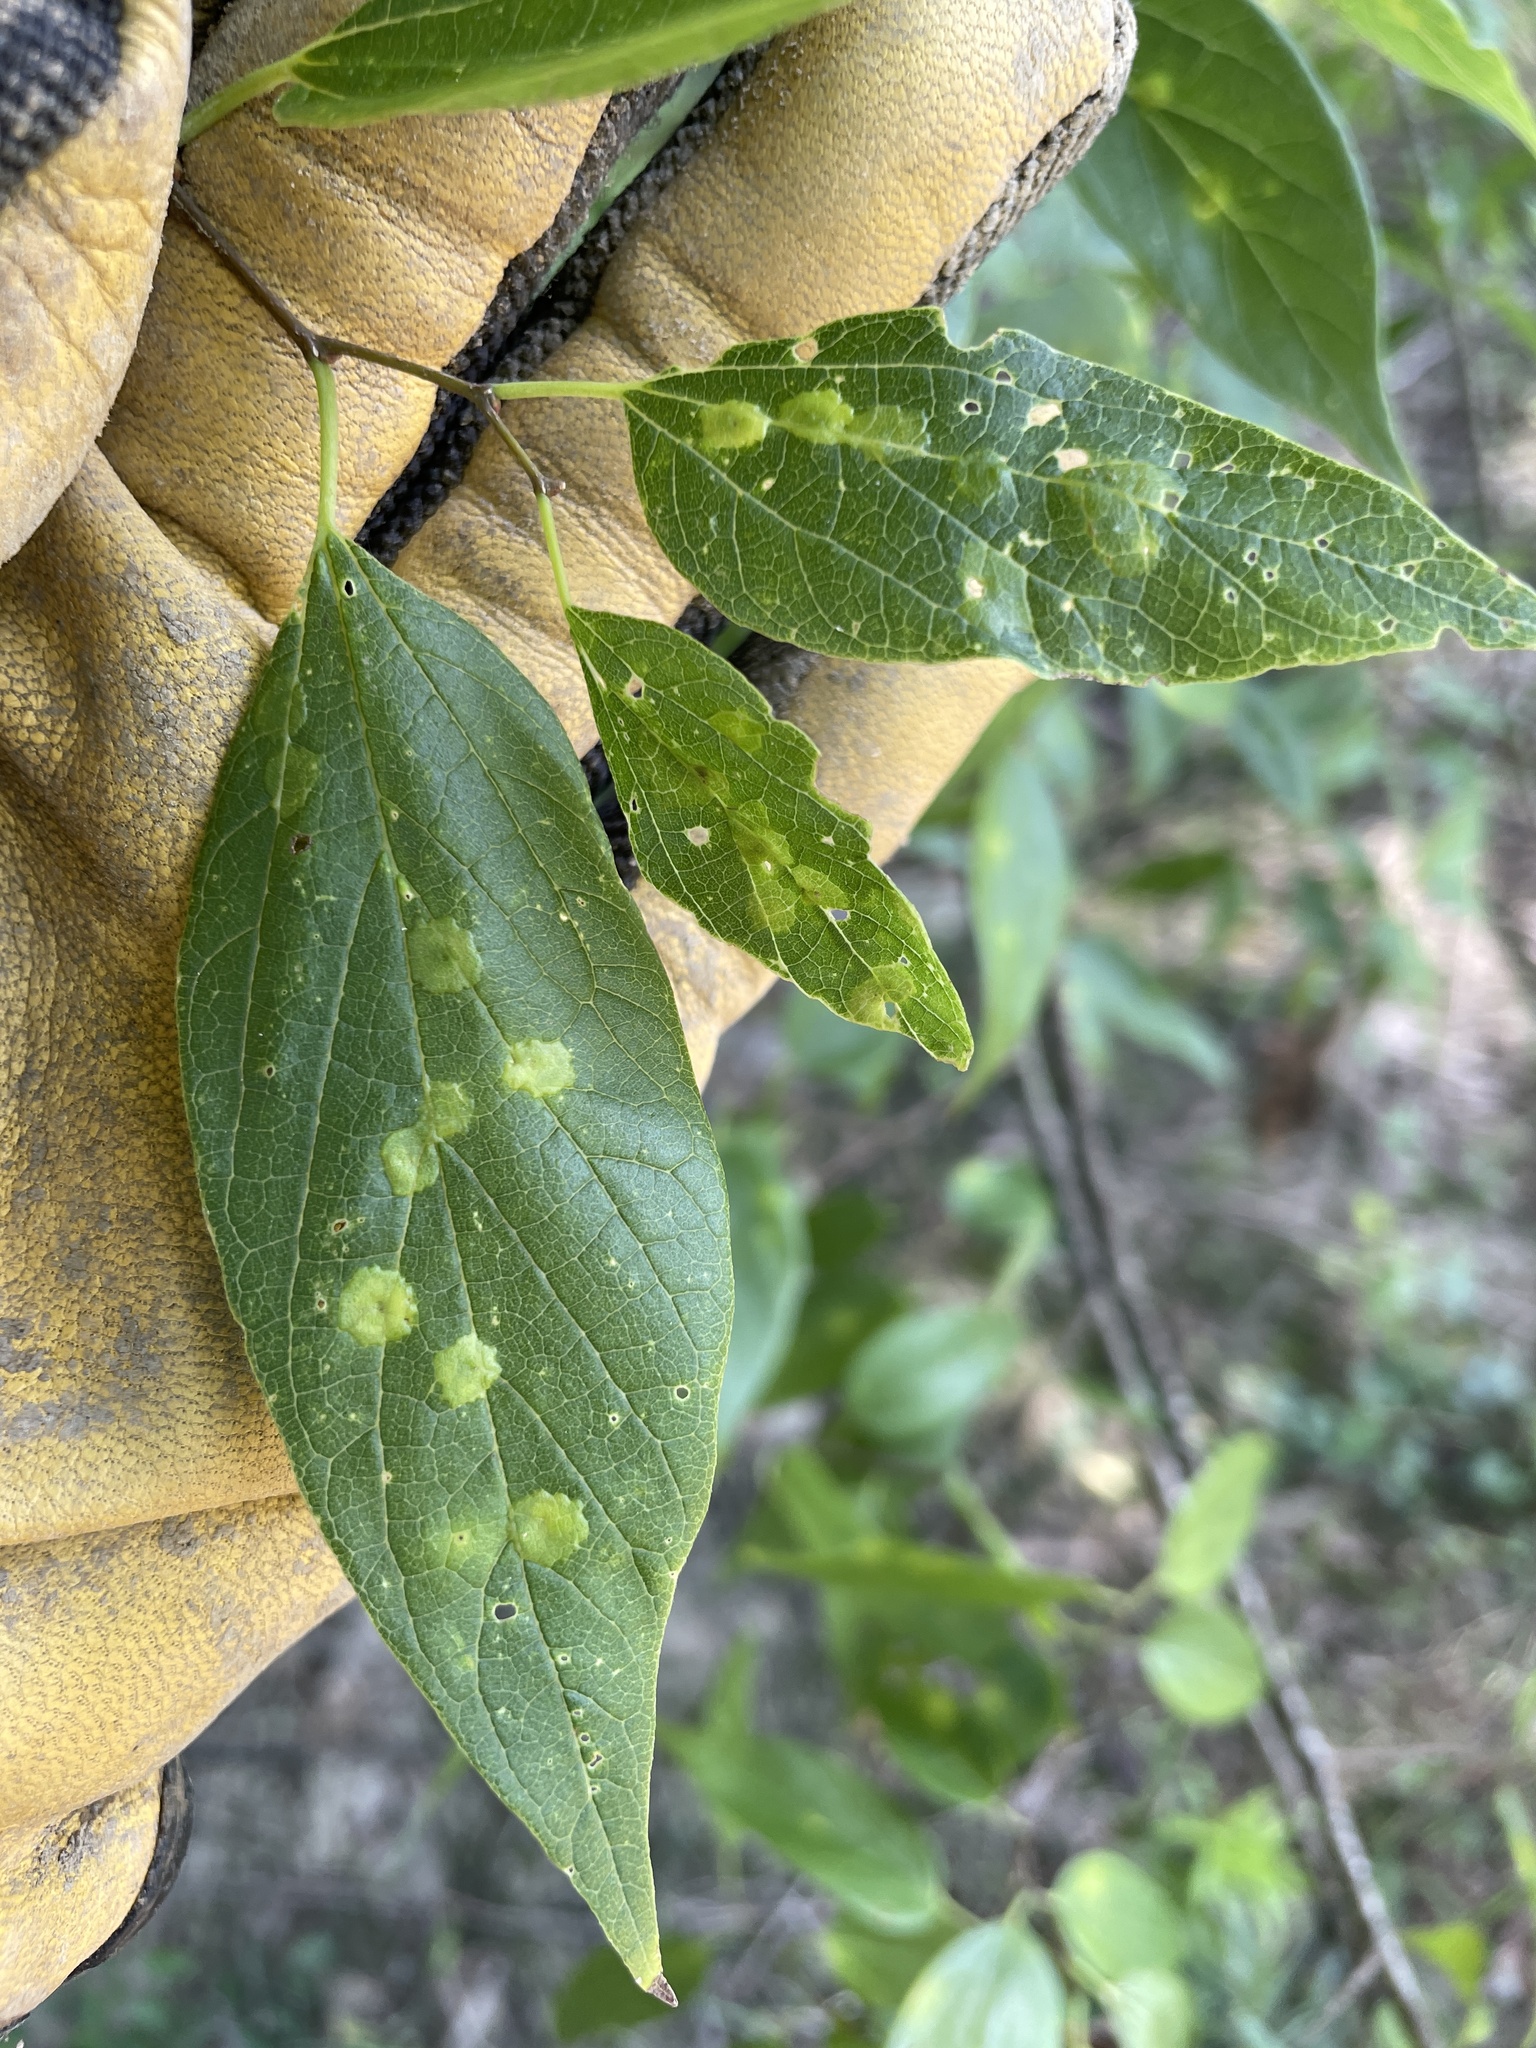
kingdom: Animalia
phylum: Arthropoda
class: Insecta
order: Hemiptera
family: Aphalaridae
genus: Pachypsylla
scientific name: Pachypsylla celtidisvesicula
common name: Hackberry blister gall psyllid
